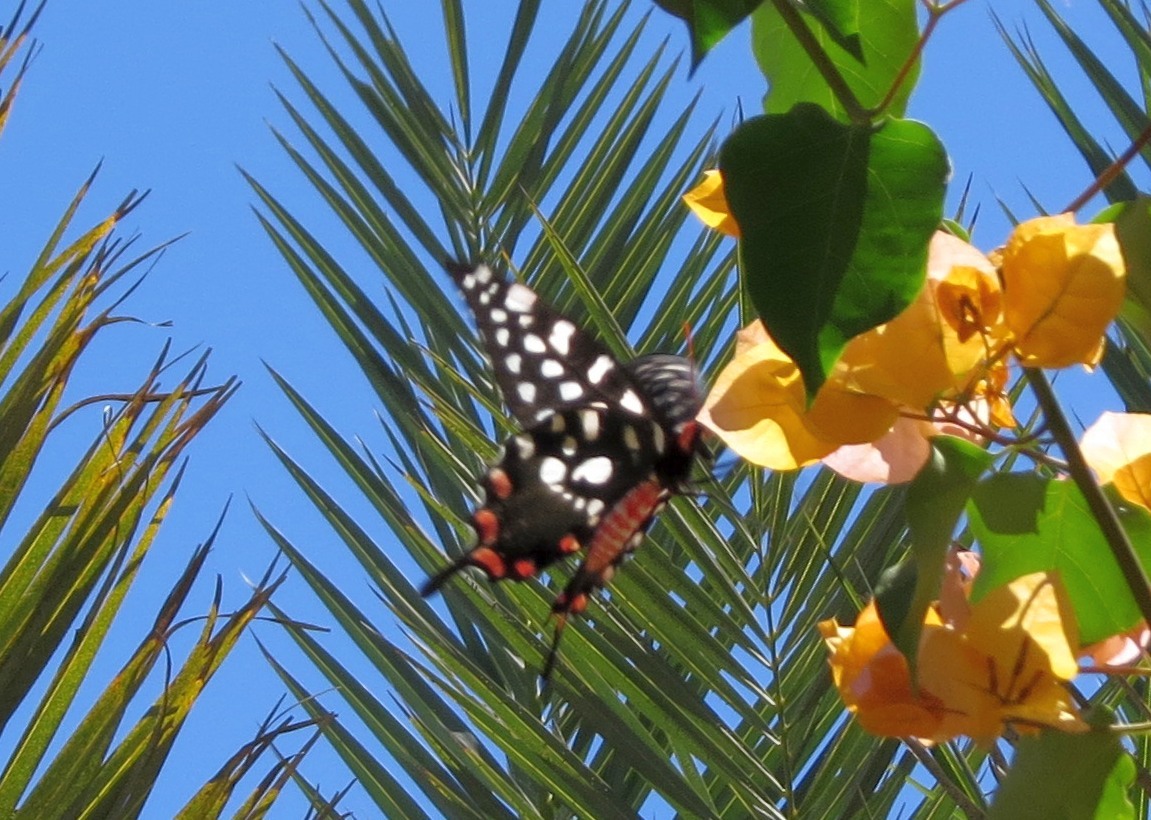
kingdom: Animalia
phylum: Arthropoda
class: Insecta
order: Lepidoptera
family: Papilionidae
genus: Pharmacophagus
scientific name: Pharmacophagus antenor
